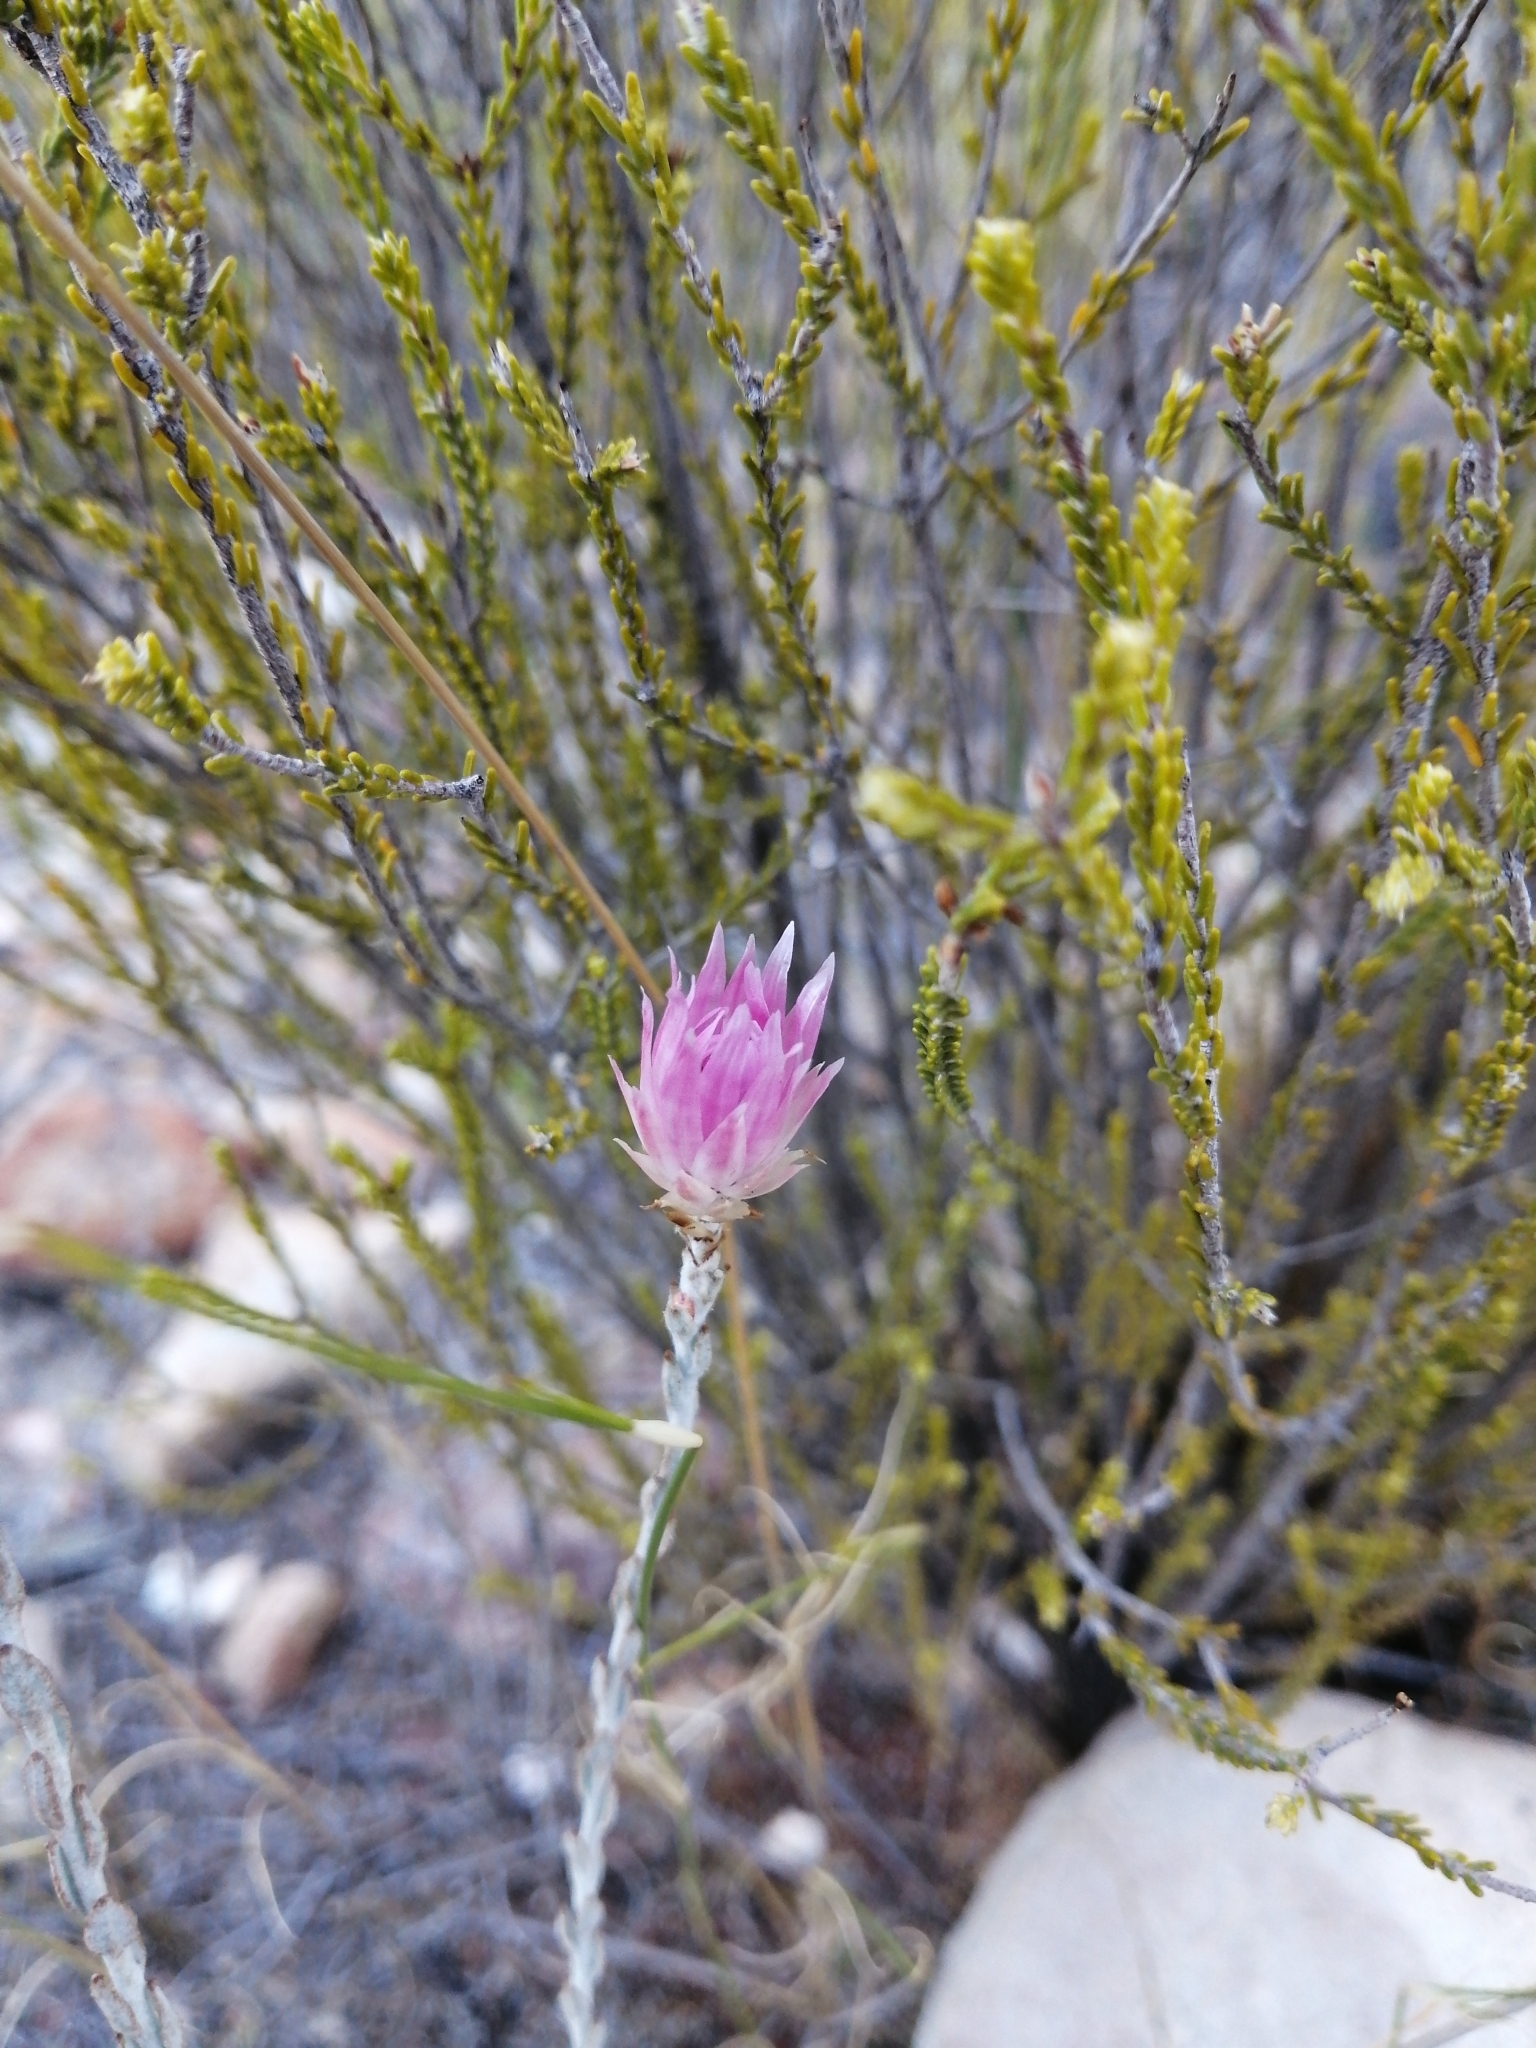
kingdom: Plantae
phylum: Tracheophyta
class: Magnoliopsida
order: Asterales
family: Asteraceae
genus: Syncarpha
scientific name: Syncarpha canescens
